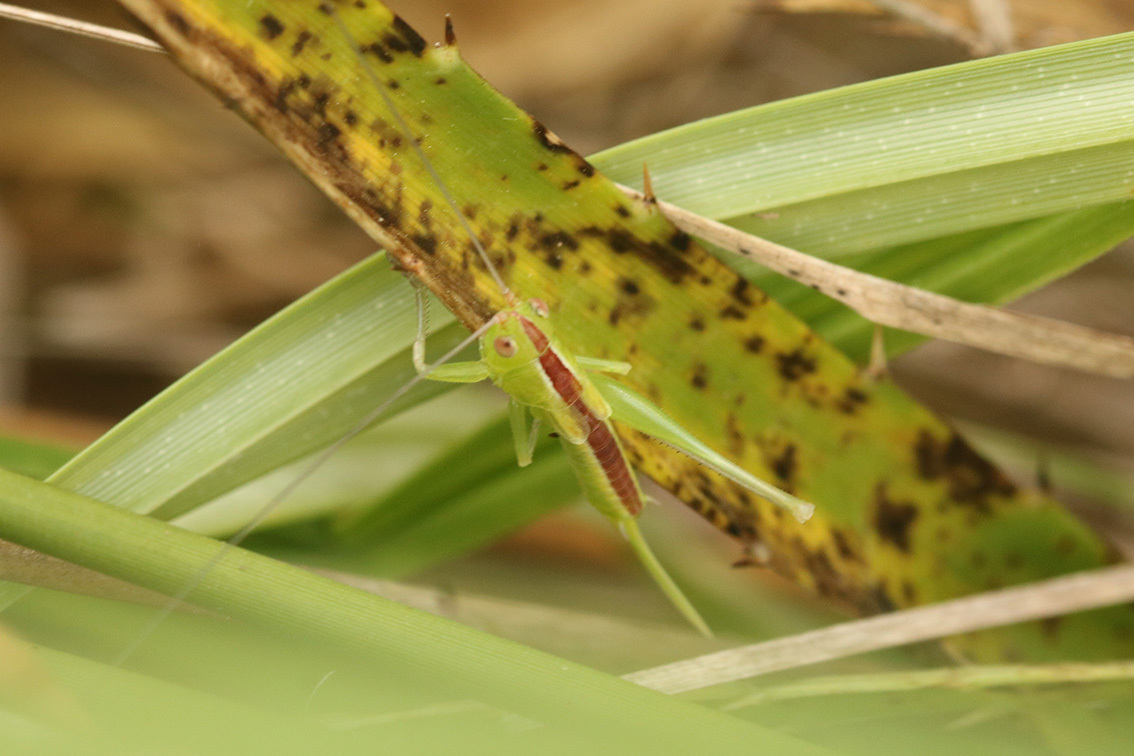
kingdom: Animalia
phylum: Arthropoda
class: Insecta
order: Orthoptera
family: Tettigoniidae
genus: Conocephalus
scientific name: Conocephalus
